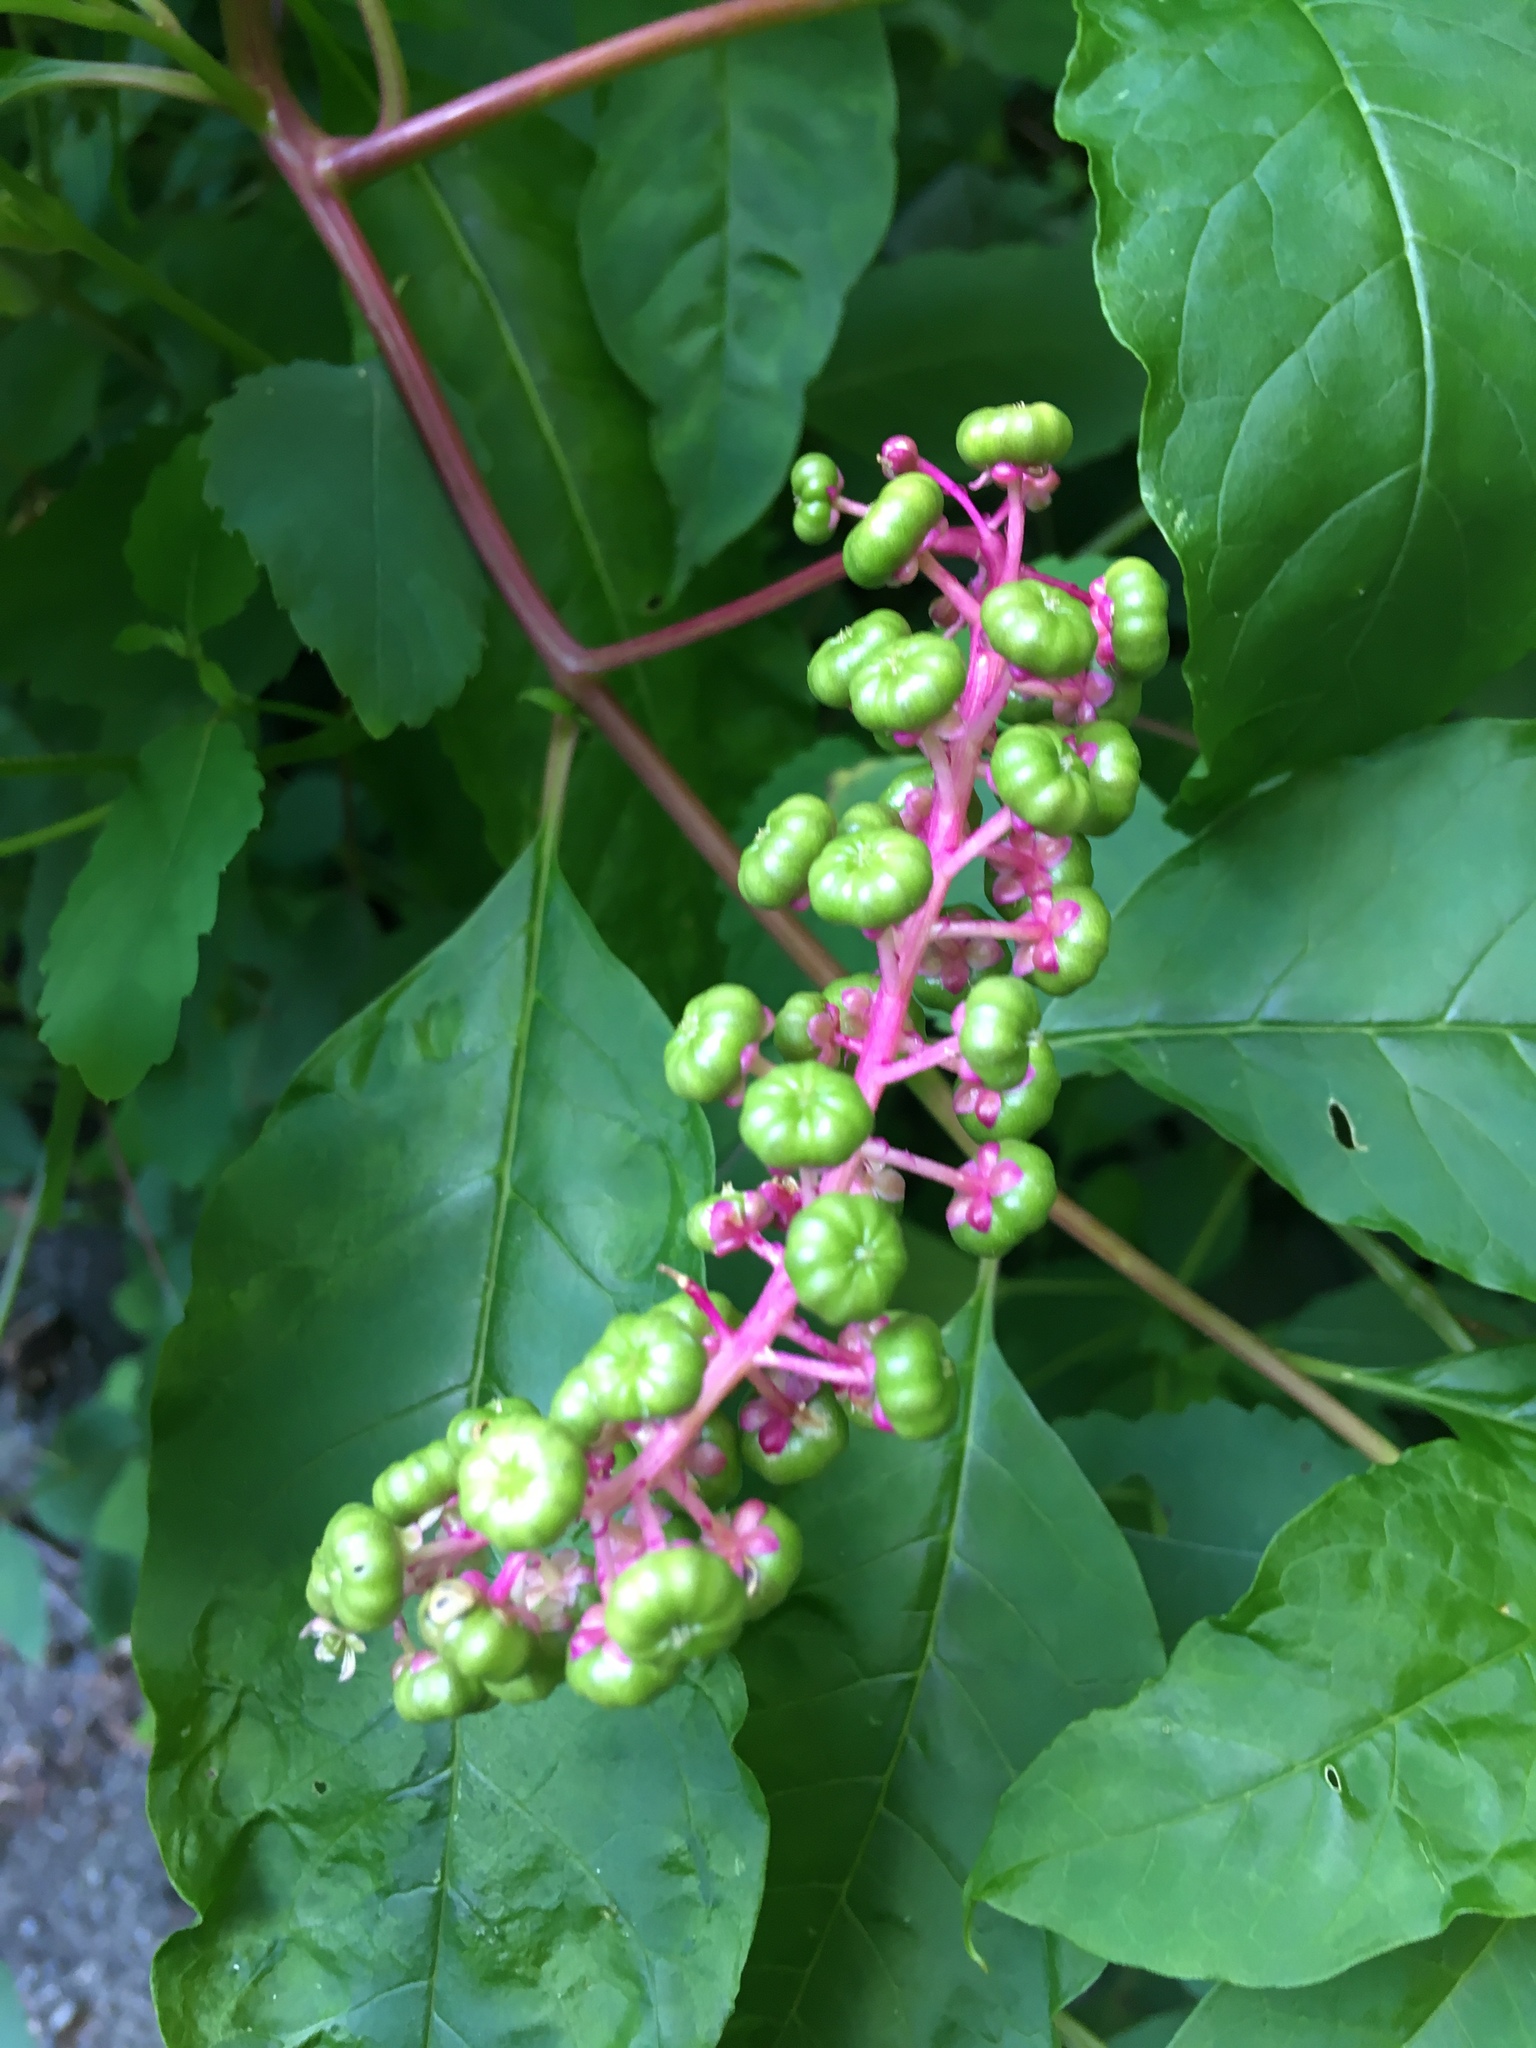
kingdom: Plantae
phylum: Tracheophyta
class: Magnoliopsida
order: Caryophyllales
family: Phytolaccaceae
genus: Phytolacca
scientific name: Phytolacca americana
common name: American pokeweed
